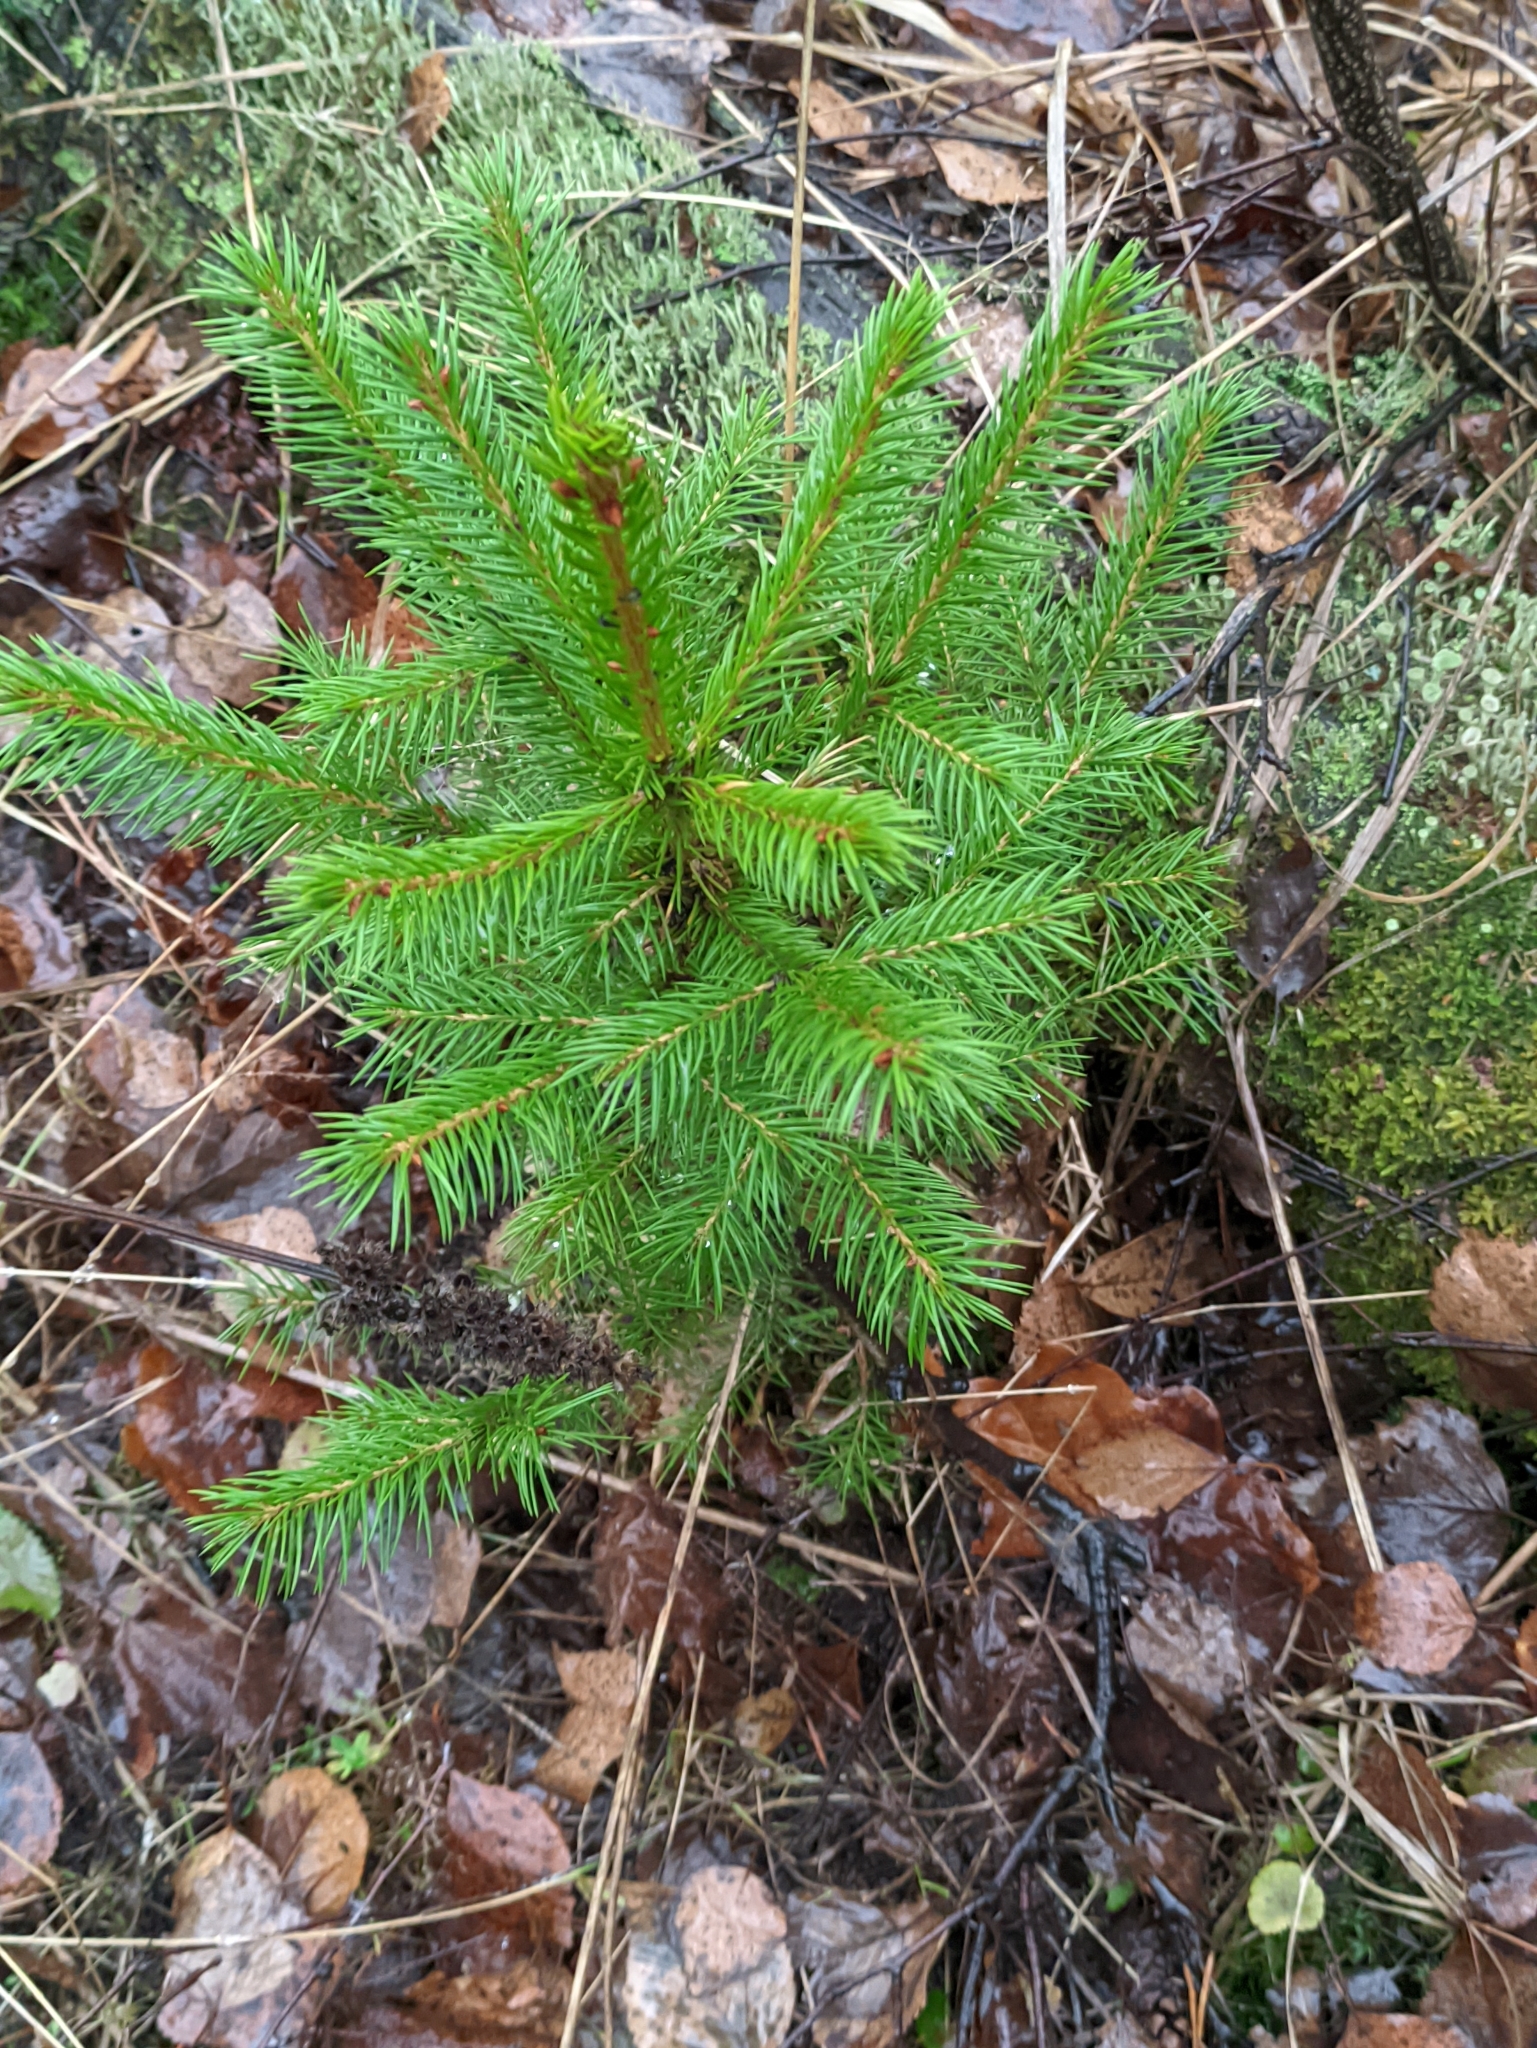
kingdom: Plantae
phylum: Tracheophyta
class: Pinopsida
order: Pinales
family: Pinaceae
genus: Picea
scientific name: Picea abies
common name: Norway spruce
